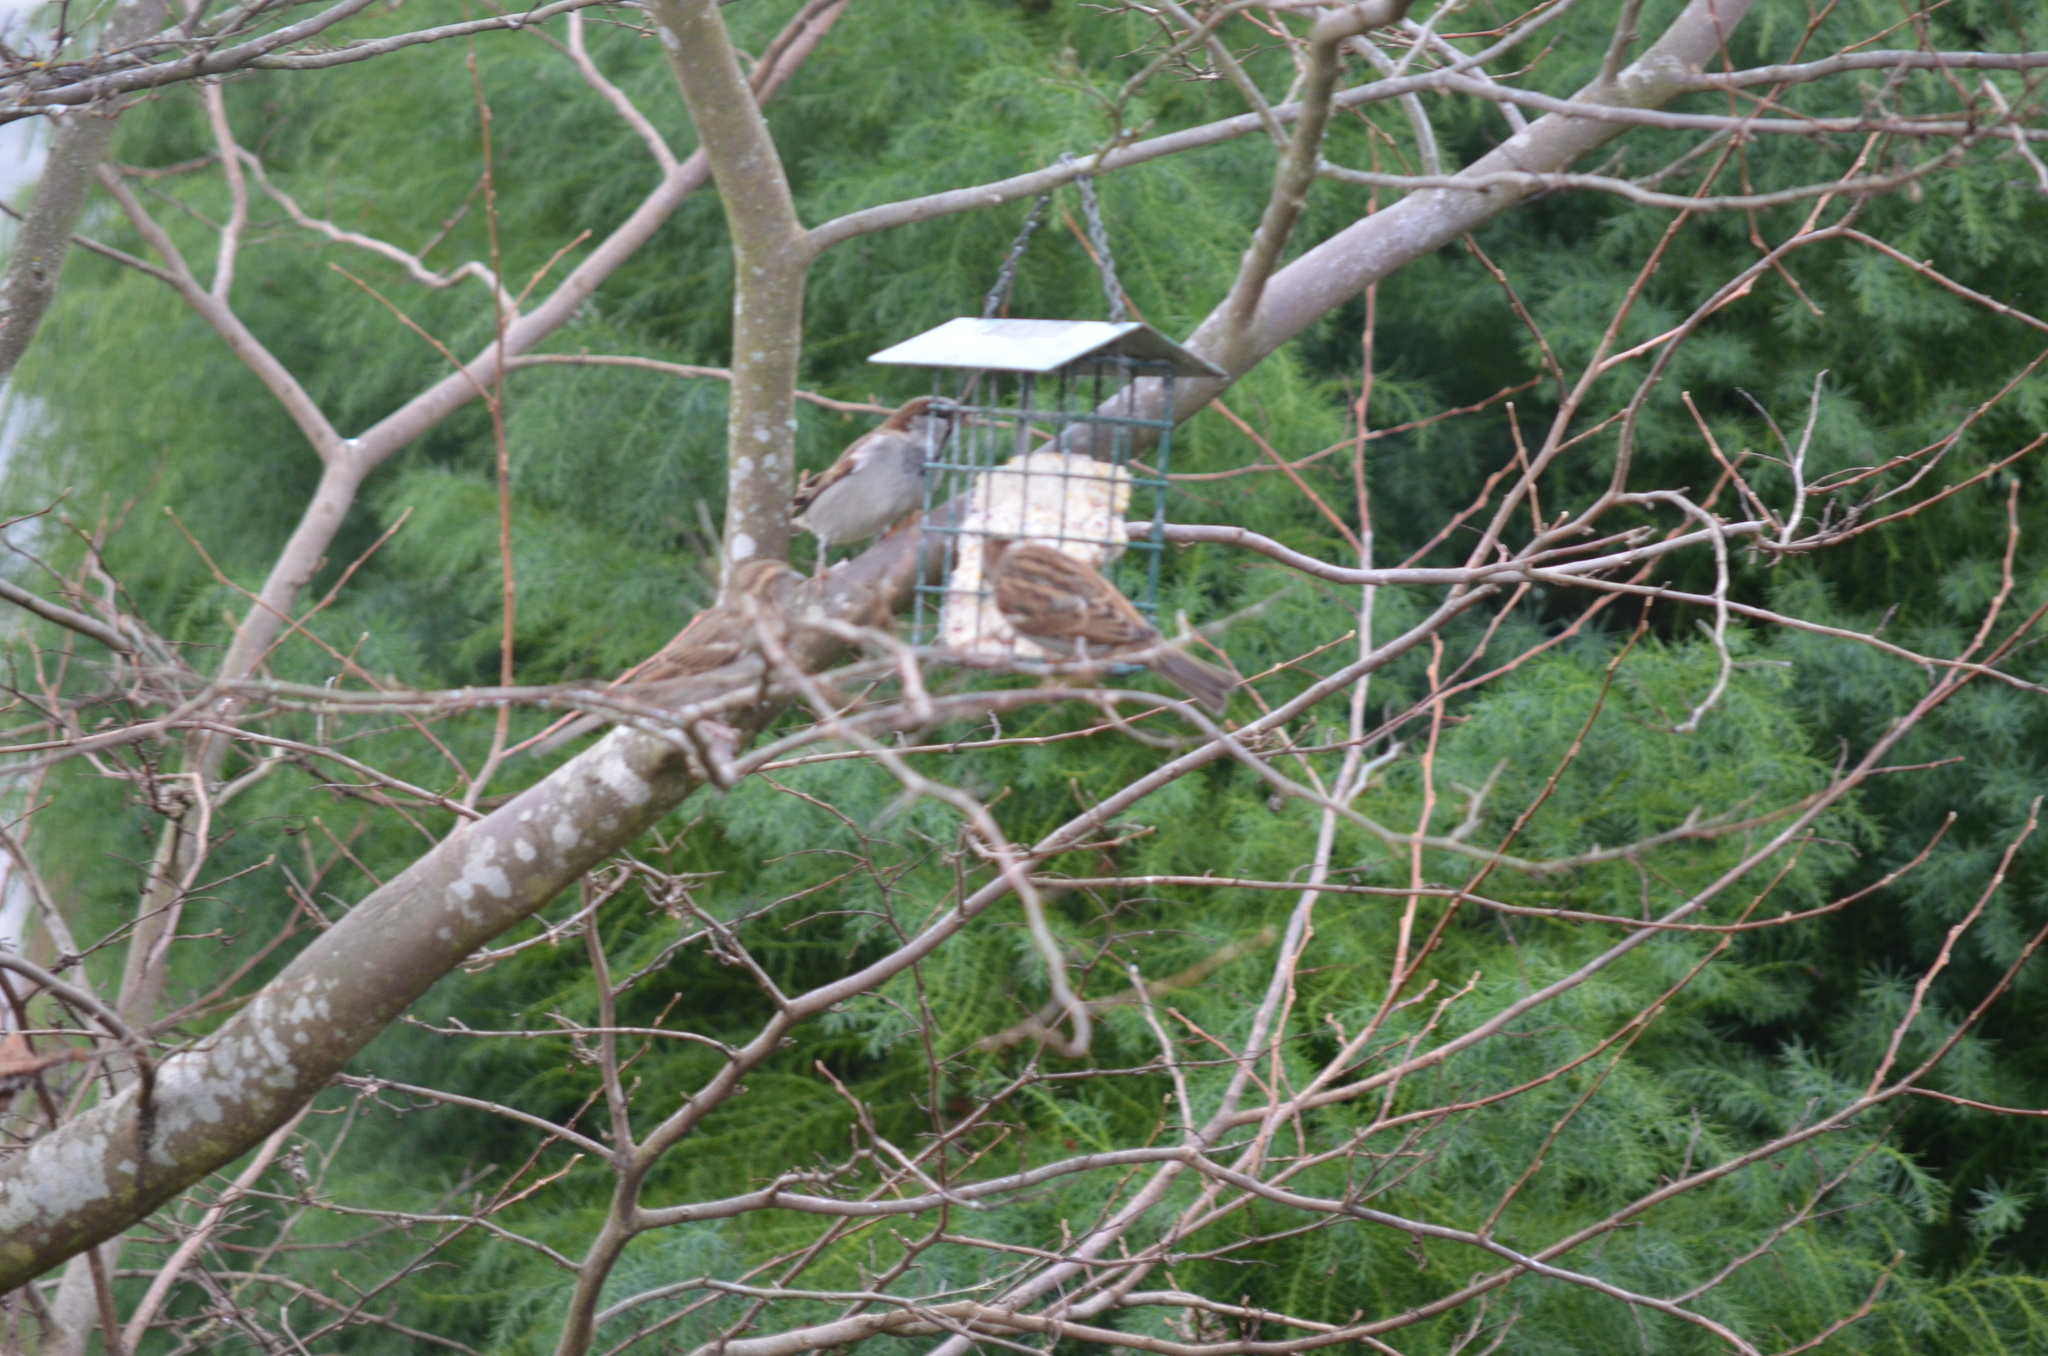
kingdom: Animalia
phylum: Chordata
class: Aves
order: Passeriformes
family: Passeridae
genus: Passer
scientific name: Passer domesticus
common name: House sparrow
